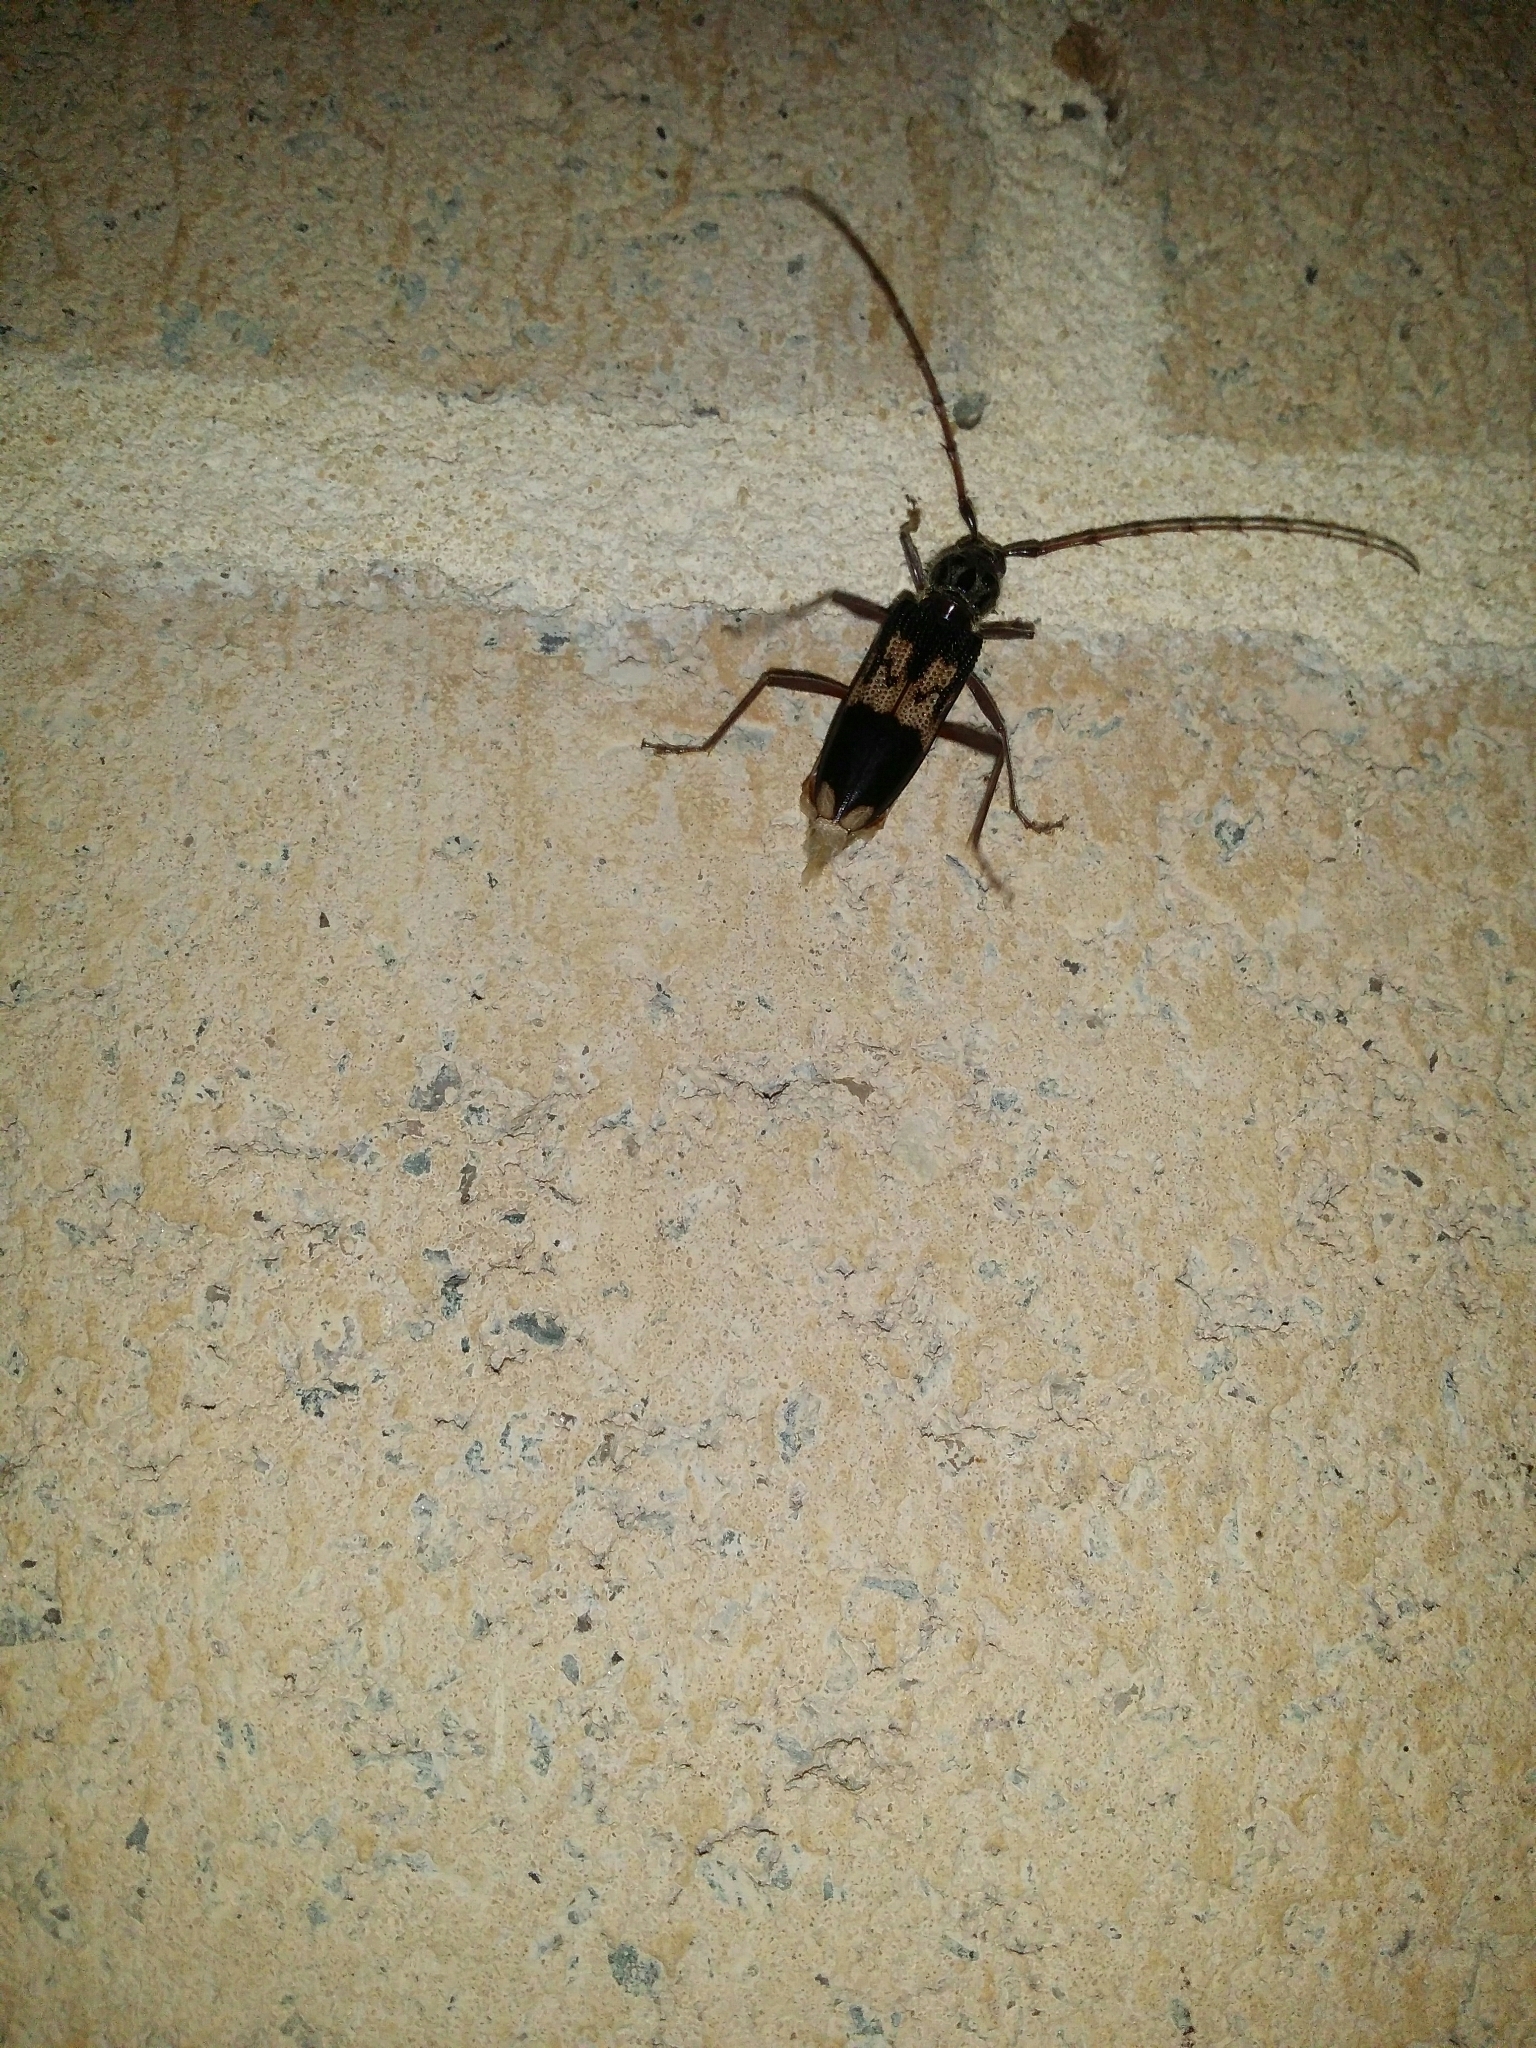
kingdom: Animalia
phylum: Arthropoda
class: Insecta
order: Coleoptera
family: Cerambycidae
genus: Phoracantha
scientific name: Phoracantha semipunctata
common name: Eucalyptus longhorn borer
